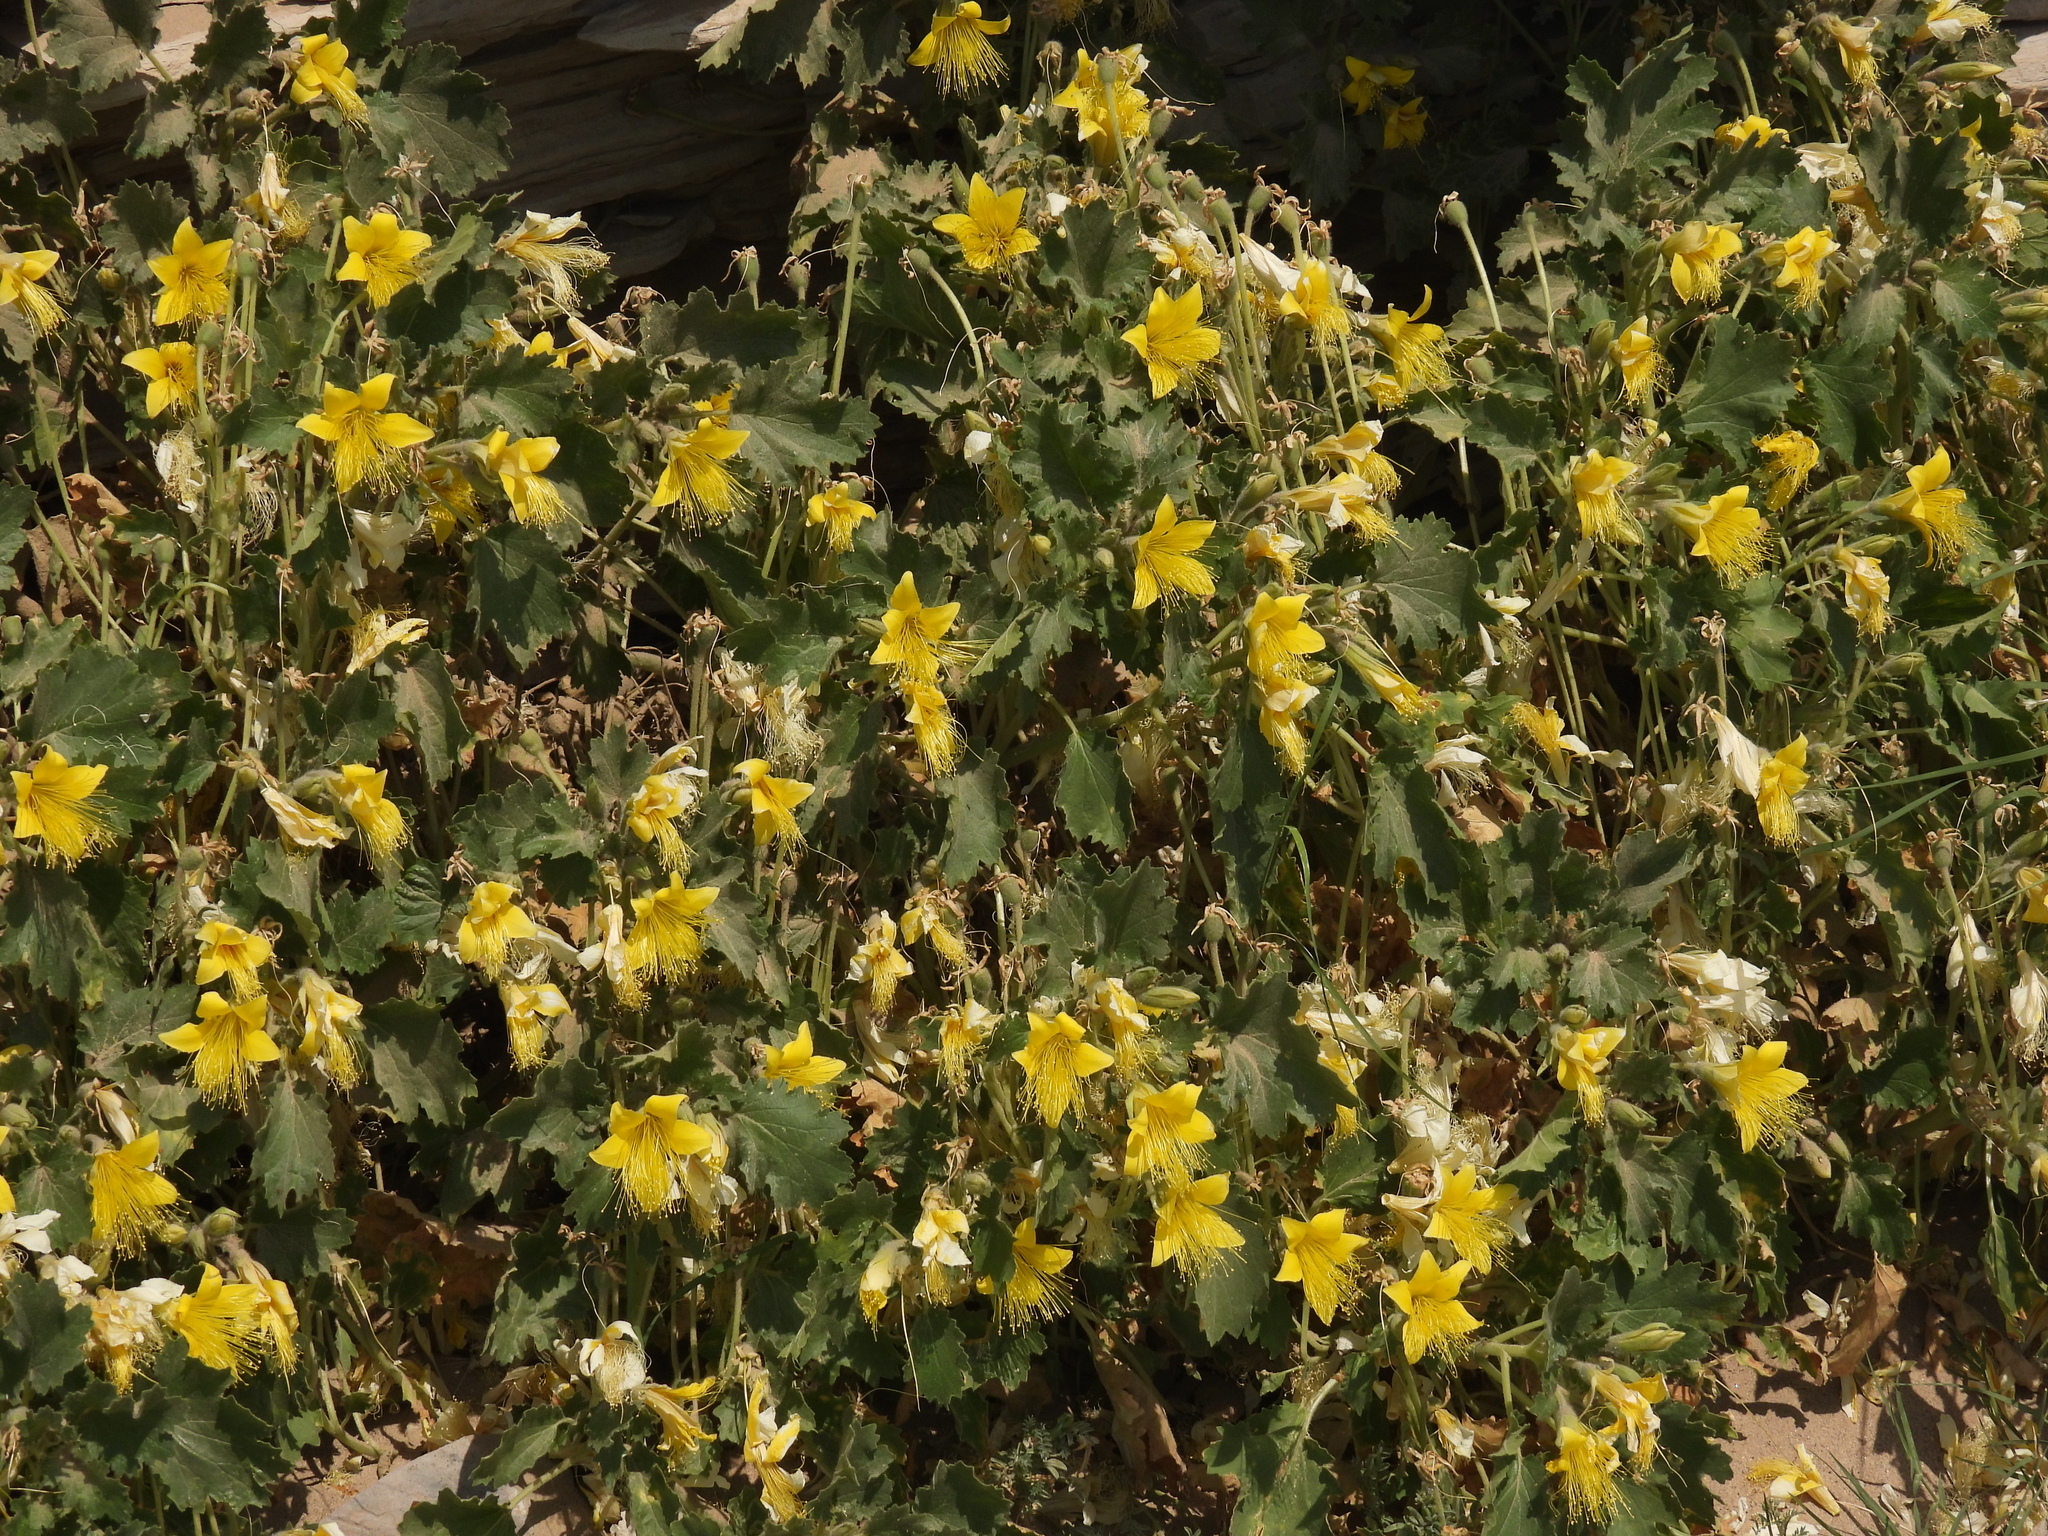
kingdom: Plantae
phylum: Tracheophyta
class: Magnoliopsida
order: Cornales
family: Loasaceae
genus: Eucnide
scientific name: Eucnide bartonioides
